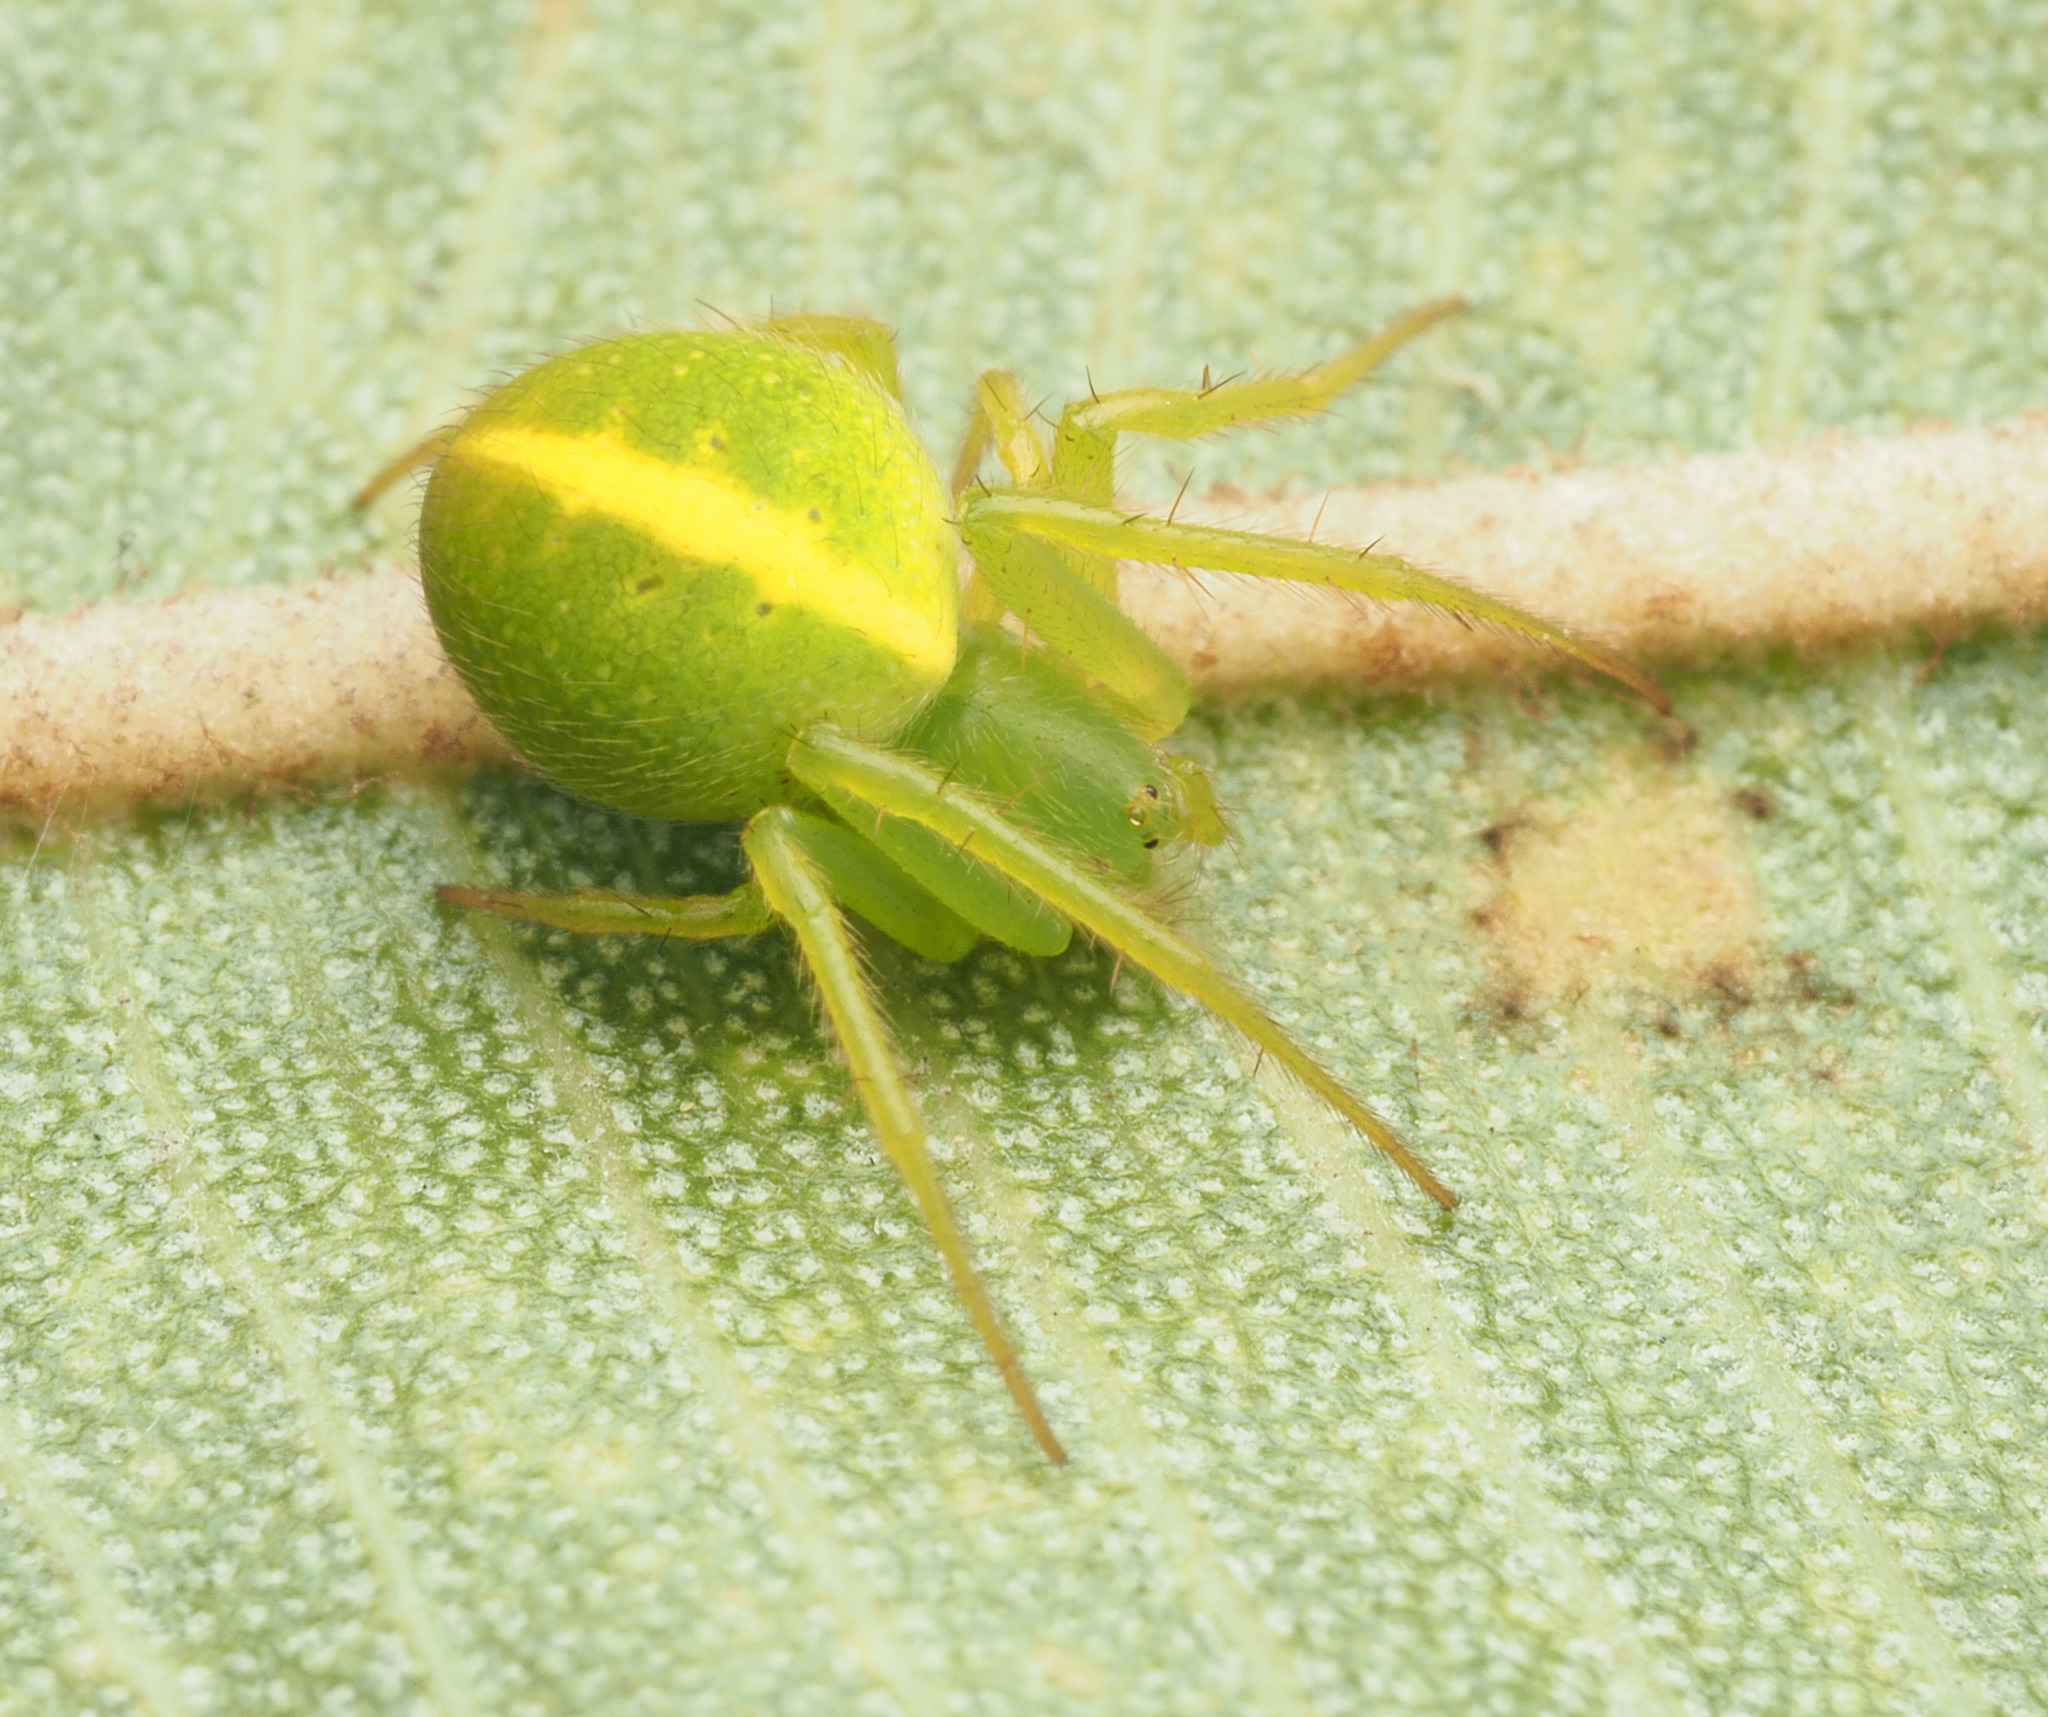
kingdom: Animalia
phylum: Arthropoda
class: Arachnida
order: Araneae
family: Araneidae
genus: Araneus
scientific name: Araneus
